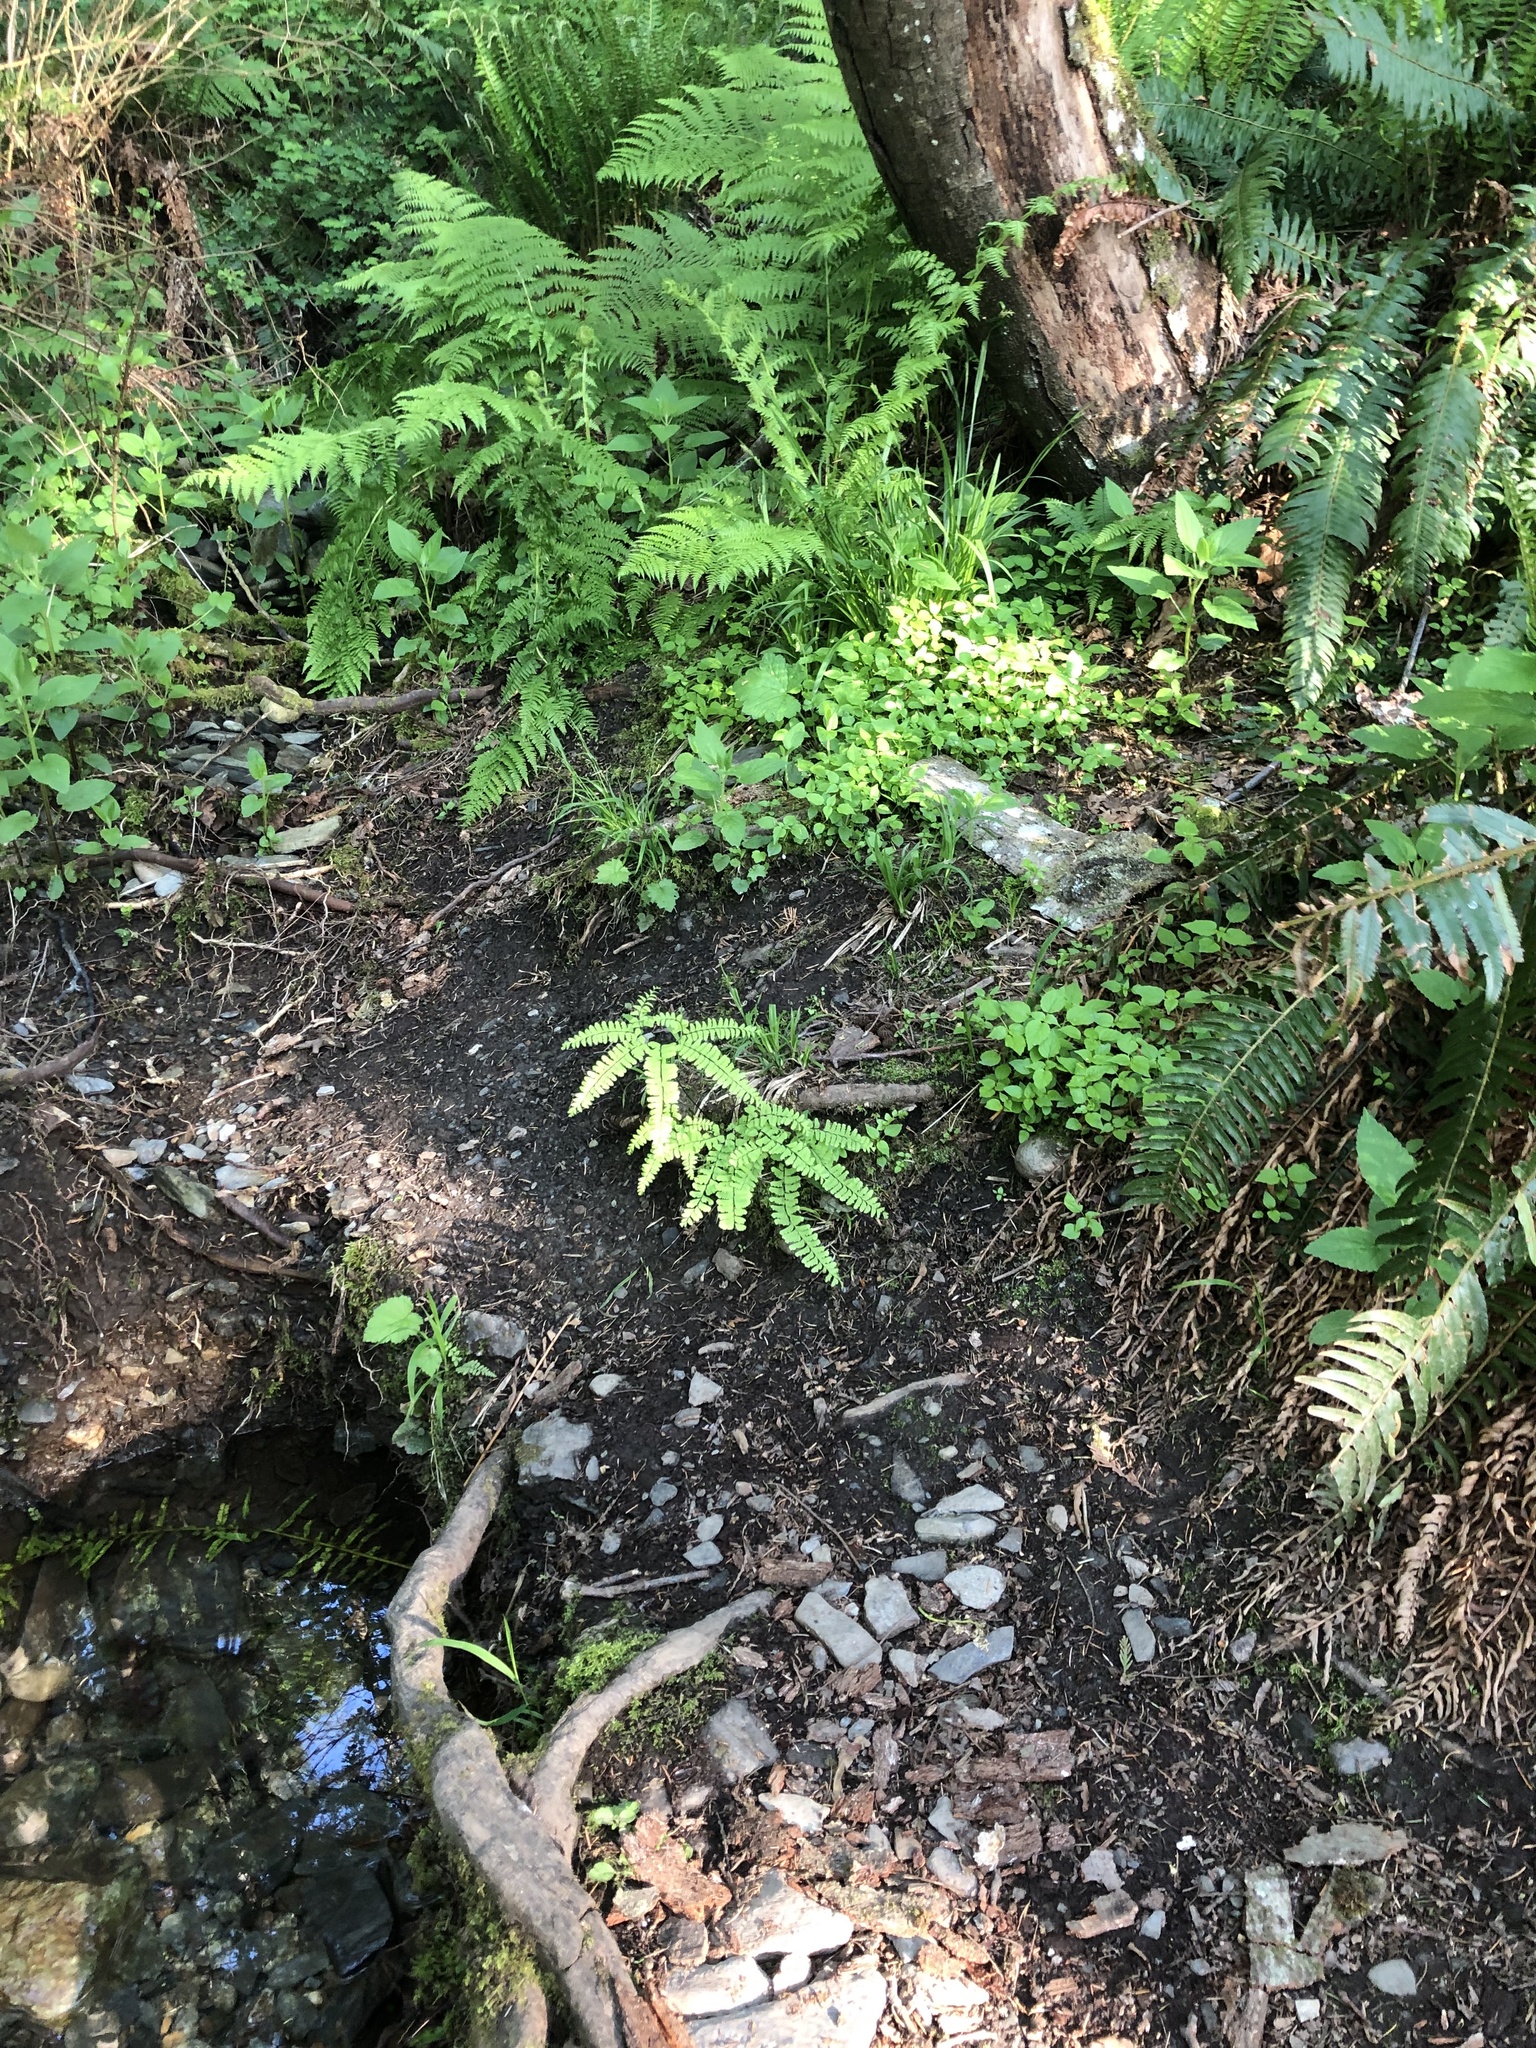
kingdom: Plantae
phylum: Tracheophyta
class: Polypodiopsida
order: Polypodiales
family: Pteridaceae
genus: Adiantum
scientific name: Adiantum aleuticum
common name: Aleutian maidenhair fern
